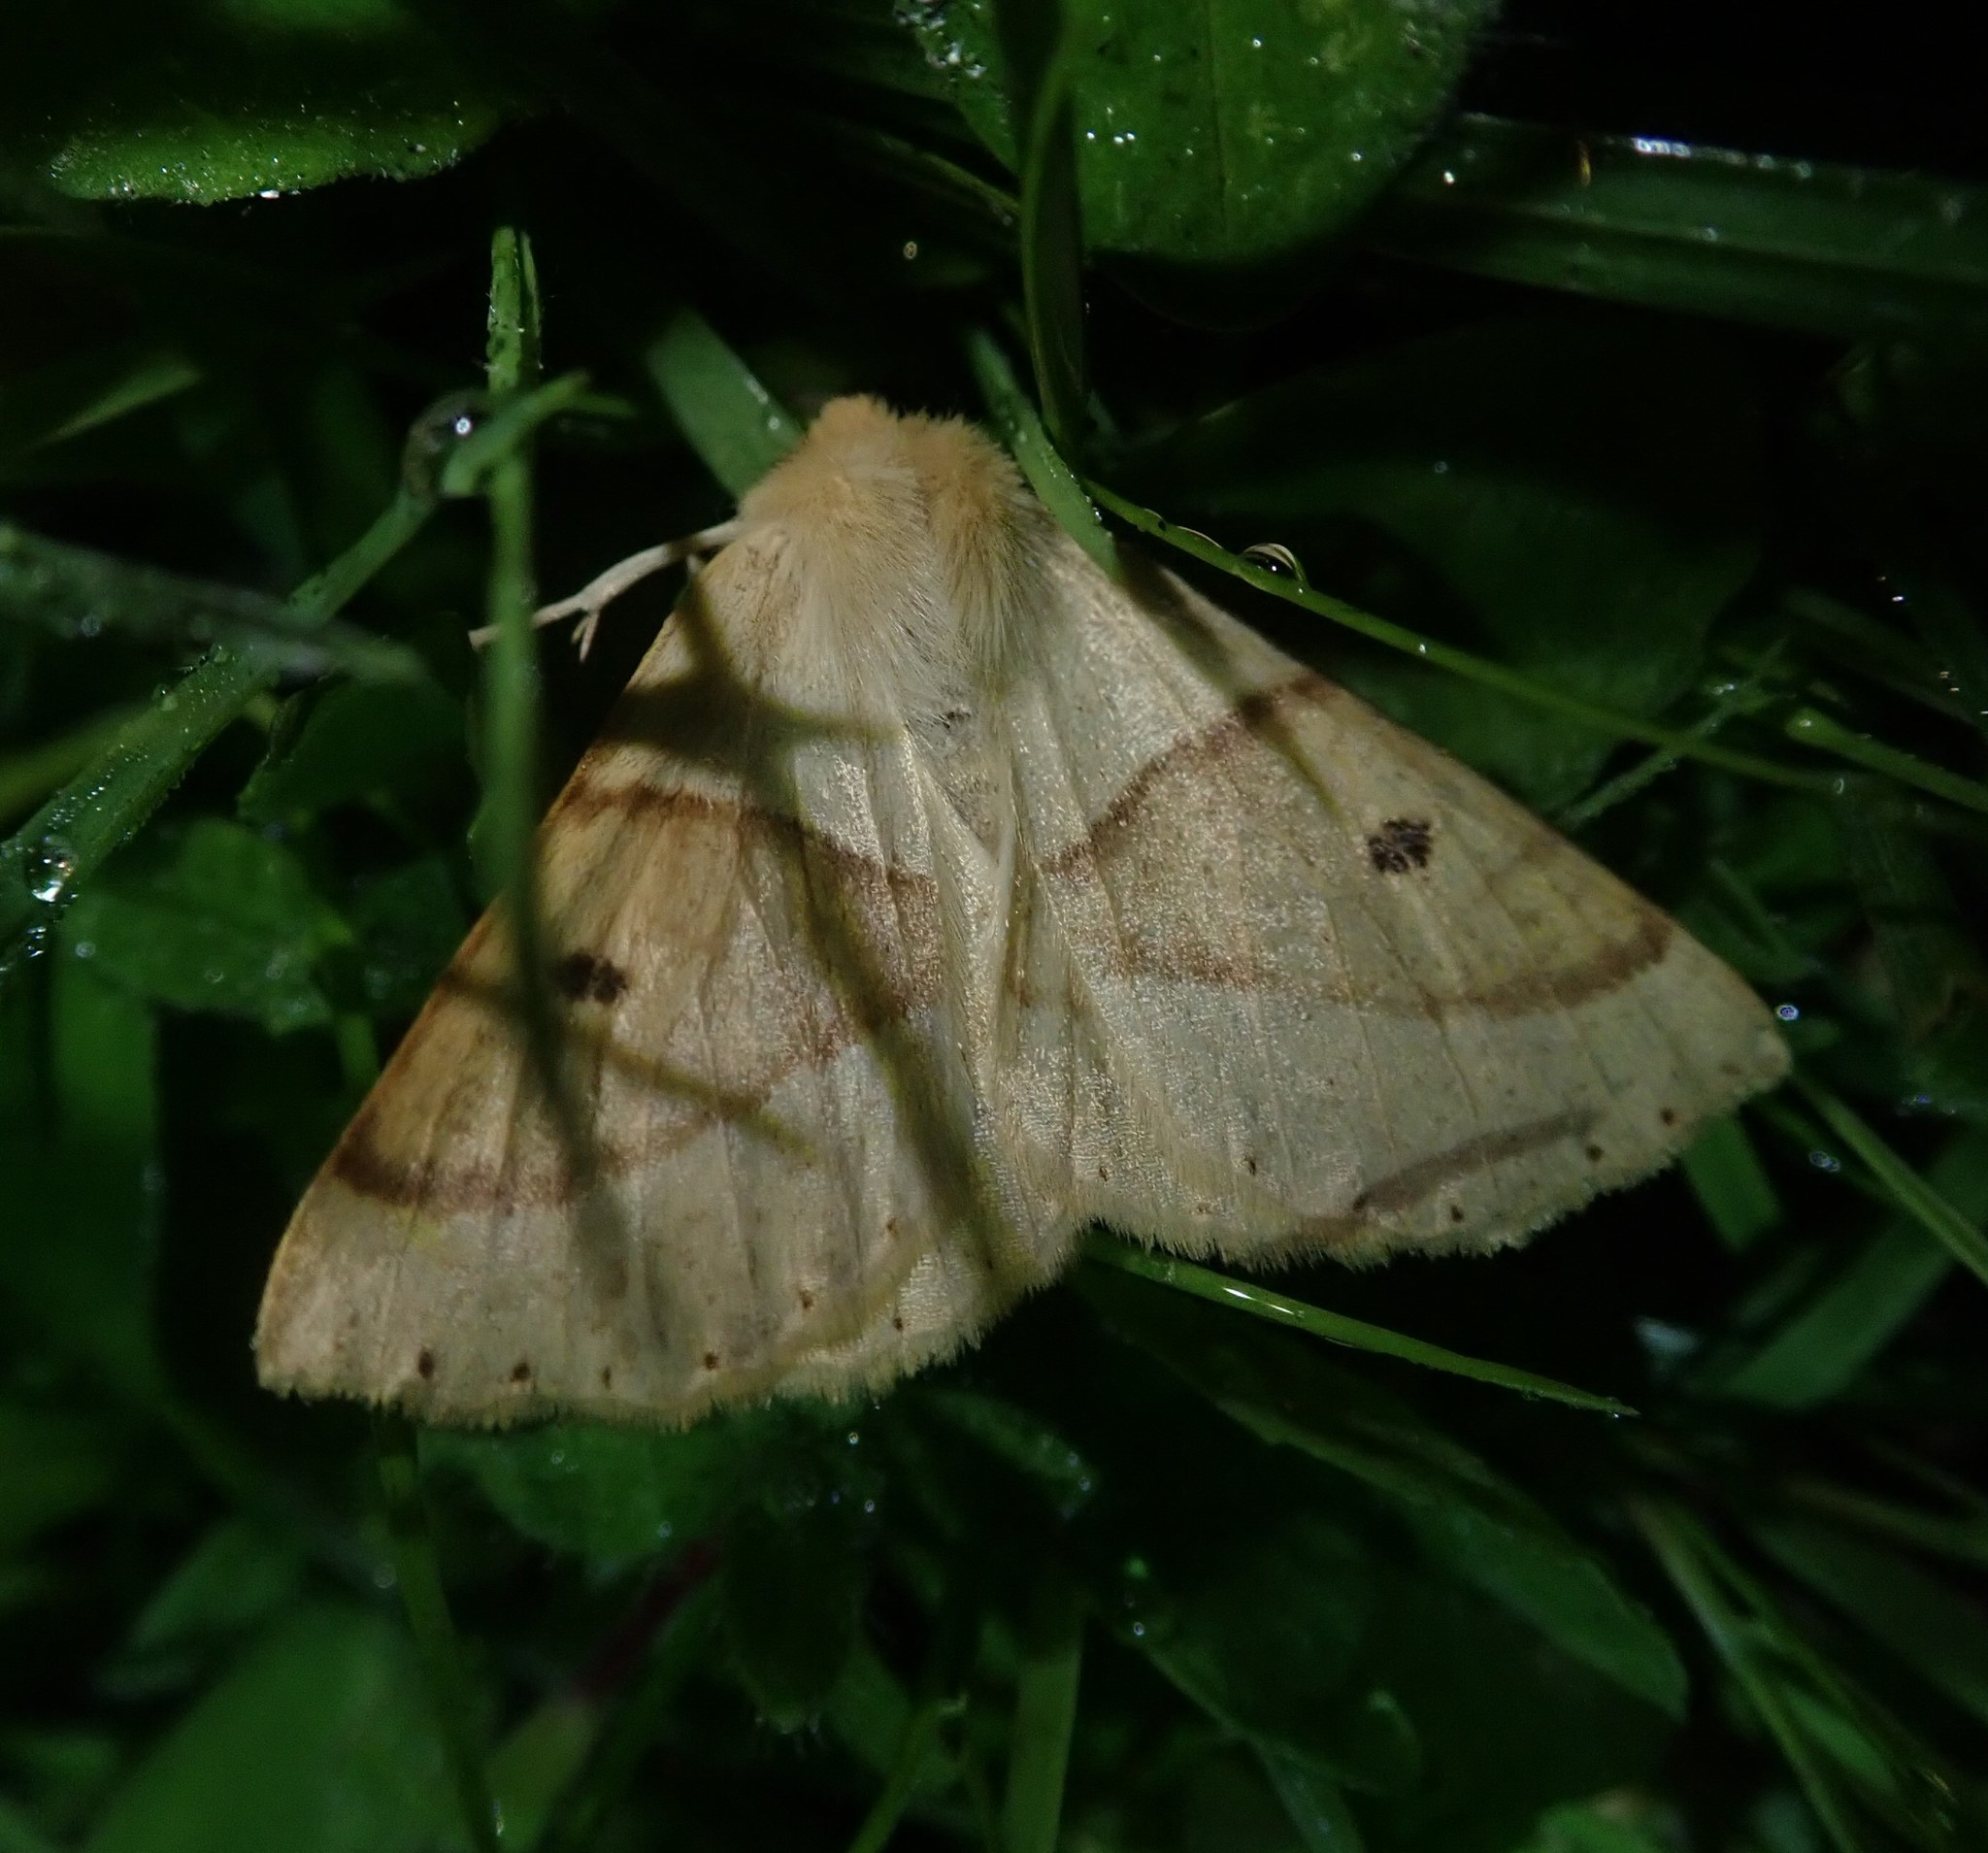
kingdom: Animalia
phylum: Arthropoda
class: Insecta
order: Lepidoptera
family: Geometridae
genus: Crocallis
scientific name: Crocallis elinguaria
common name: Scalloped oak
